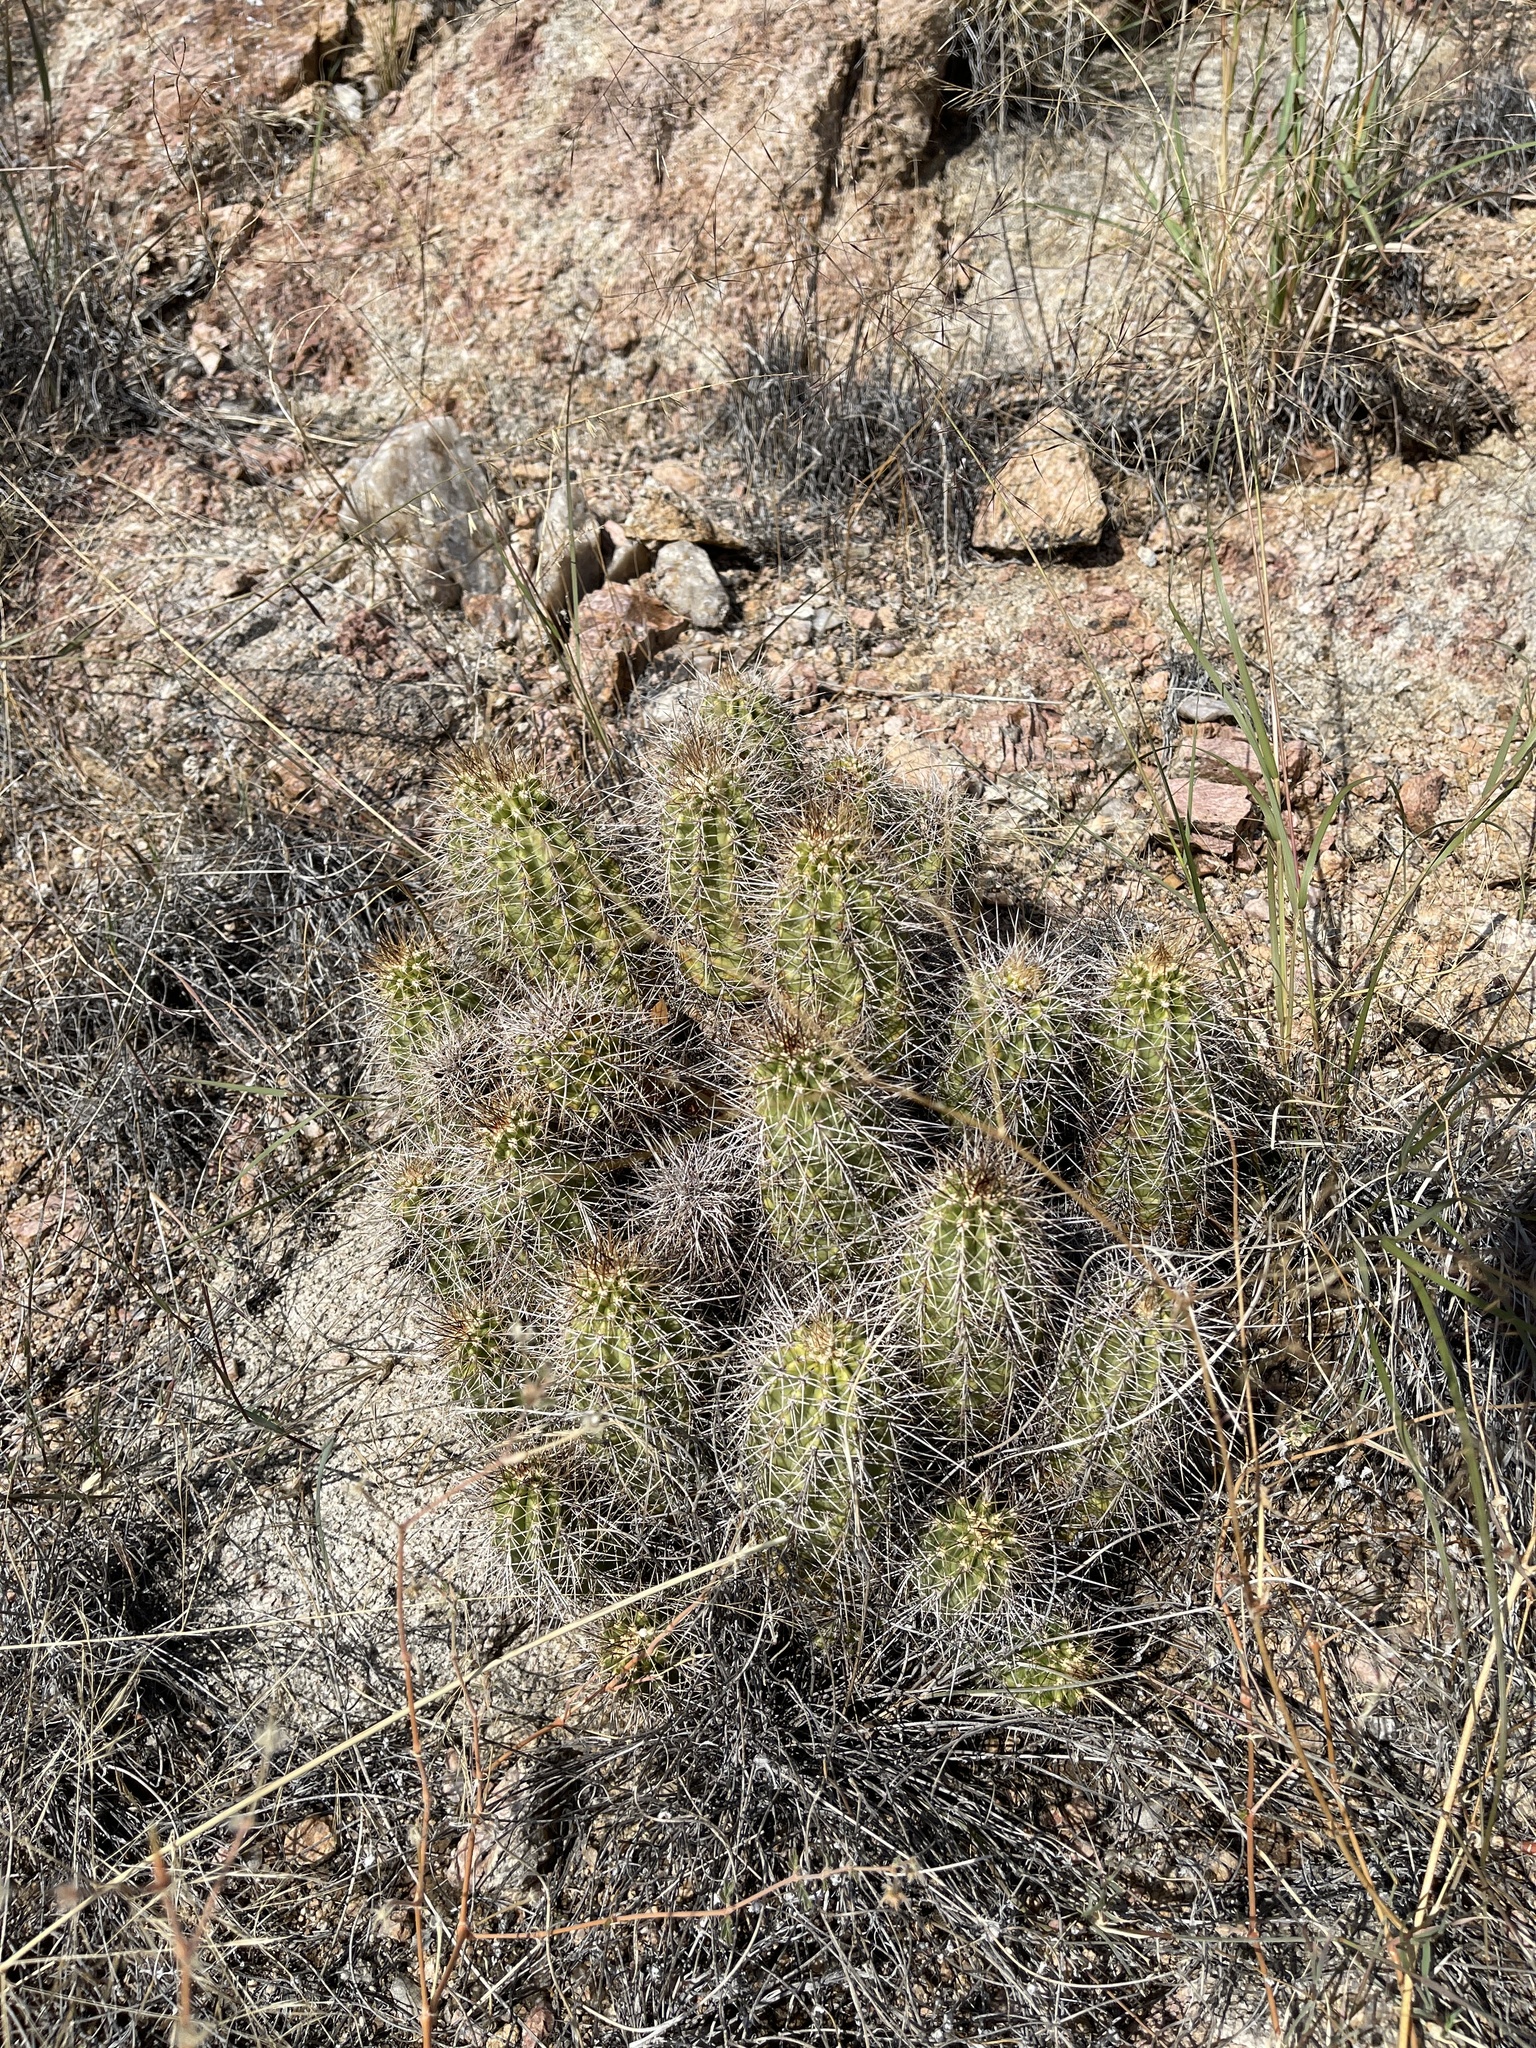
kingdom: Plantae
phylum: Tracheophyta
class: Magnoliopsida
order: Caryophyllales
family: Cactaceae
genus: Echinocereus
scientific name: Echinocereus bakeri
